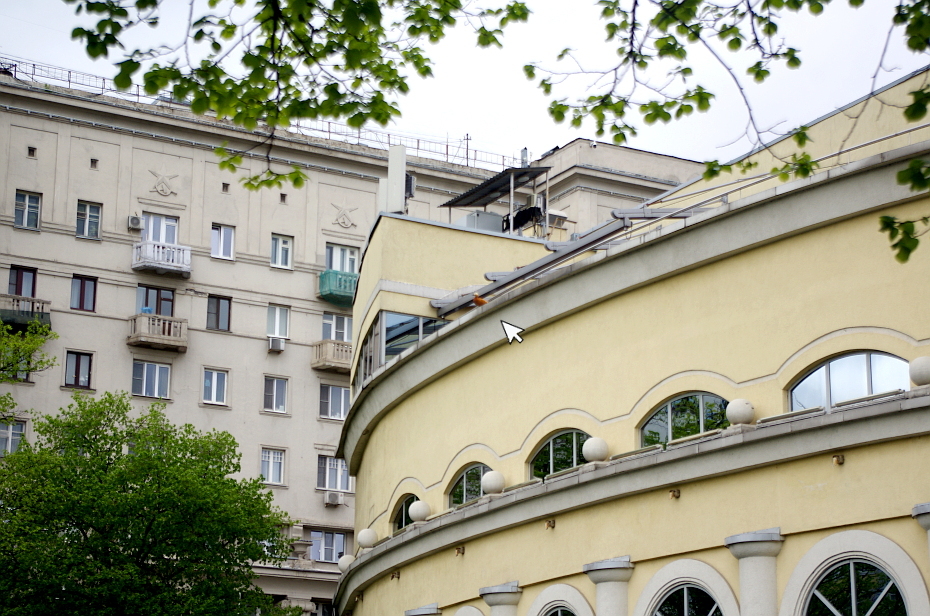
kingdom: Animalia
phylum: Chordata
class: Aves
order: Anseriformes
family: Anatidae
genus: Tadorna
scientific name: Tadorna ferruginea
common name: Ruddy shelduck
